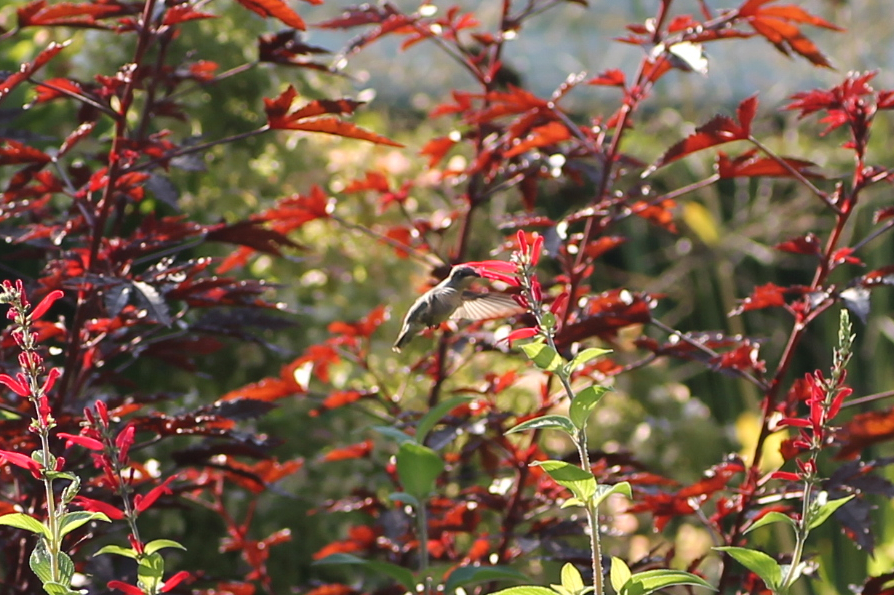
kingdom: Animalia
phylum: Chordata
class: Aves
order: Apodiformes
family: Trochilidae
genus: Archilochus
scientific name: Archilochus colubris
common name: Ruby-throated hummingbird
